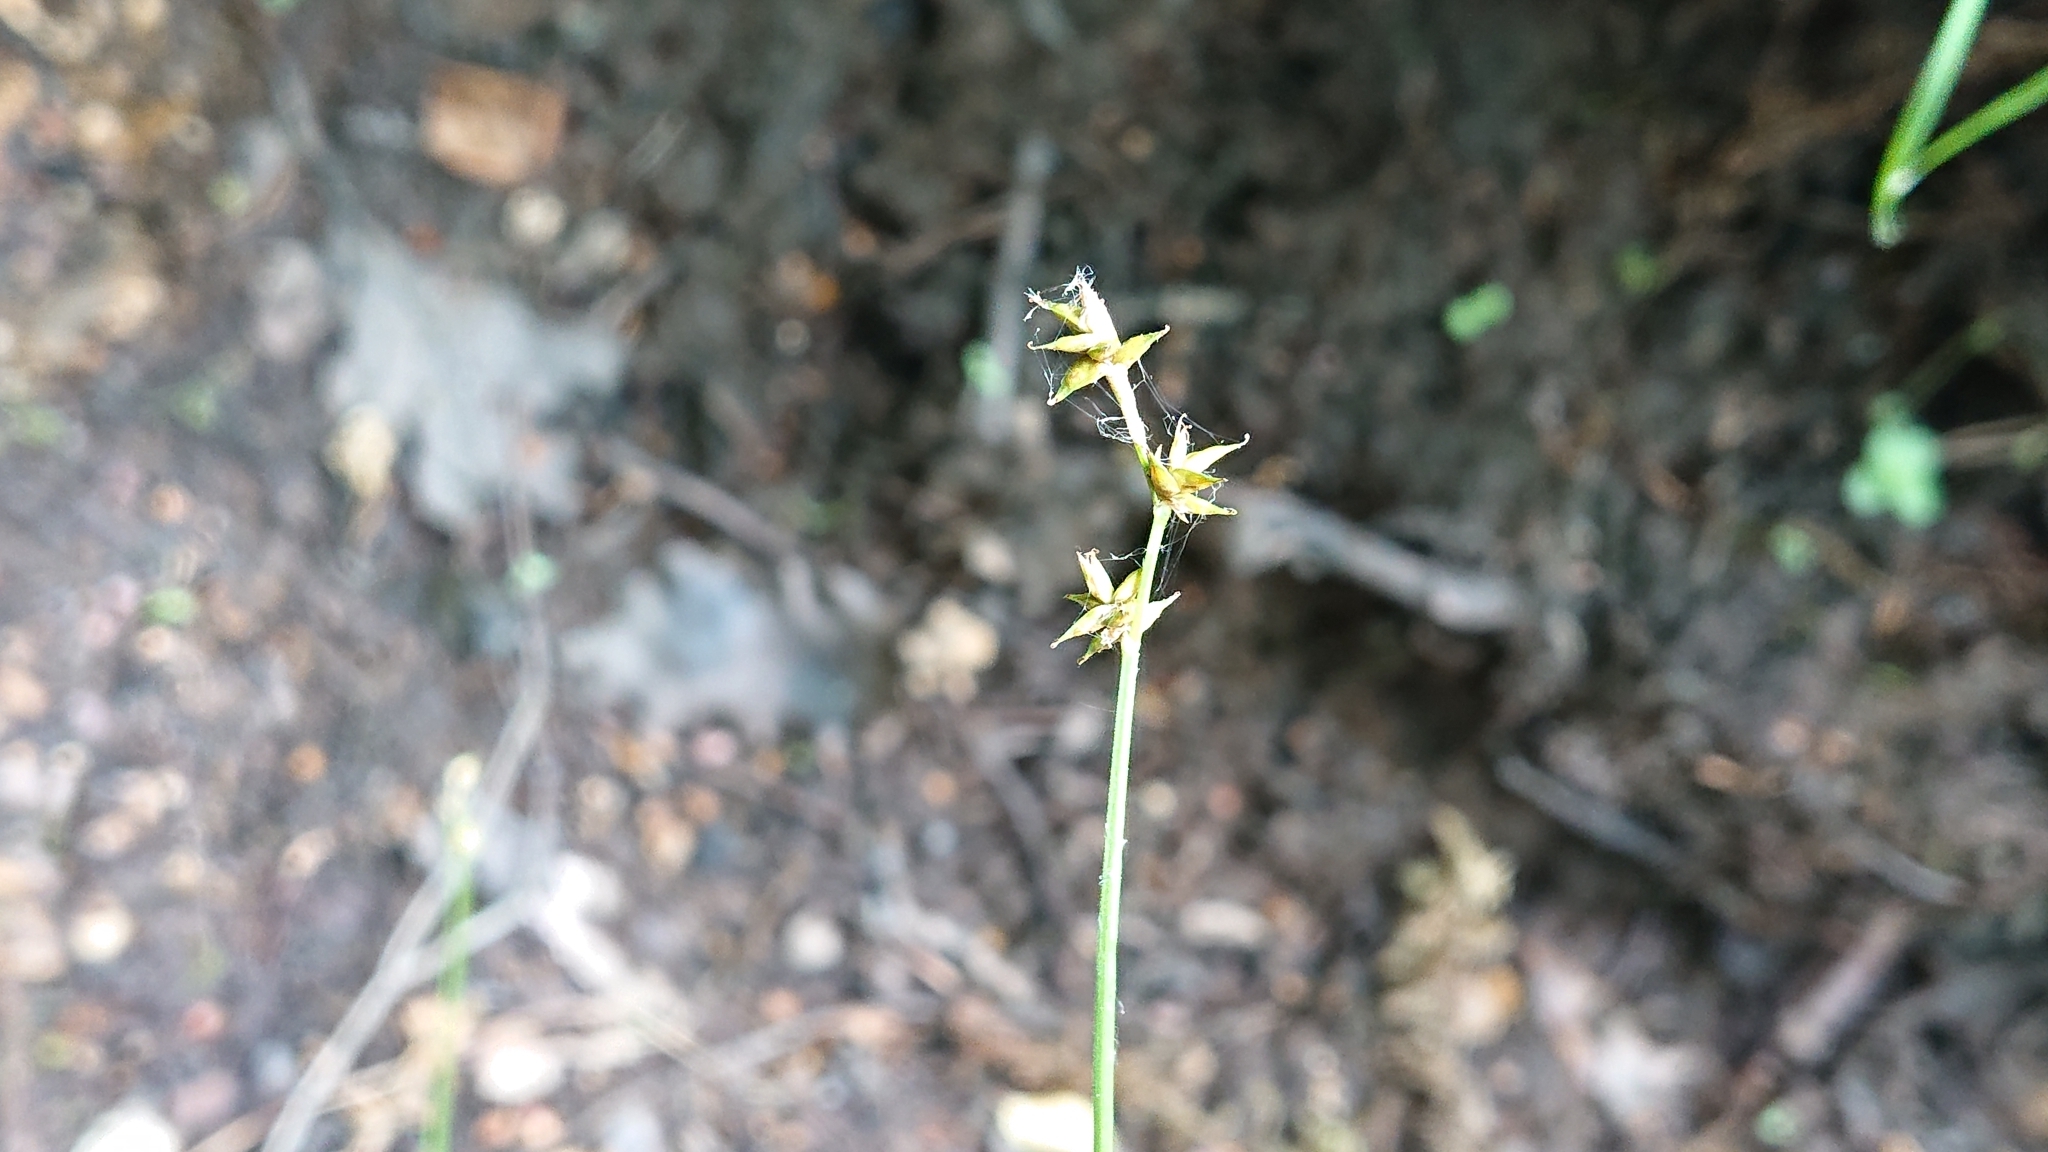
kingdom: Plantae
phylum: Tracheophyta
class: Liliopsida
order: Poales
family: Cyperaceae
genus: Carex
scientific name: Carex echinata
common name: Star sedge
